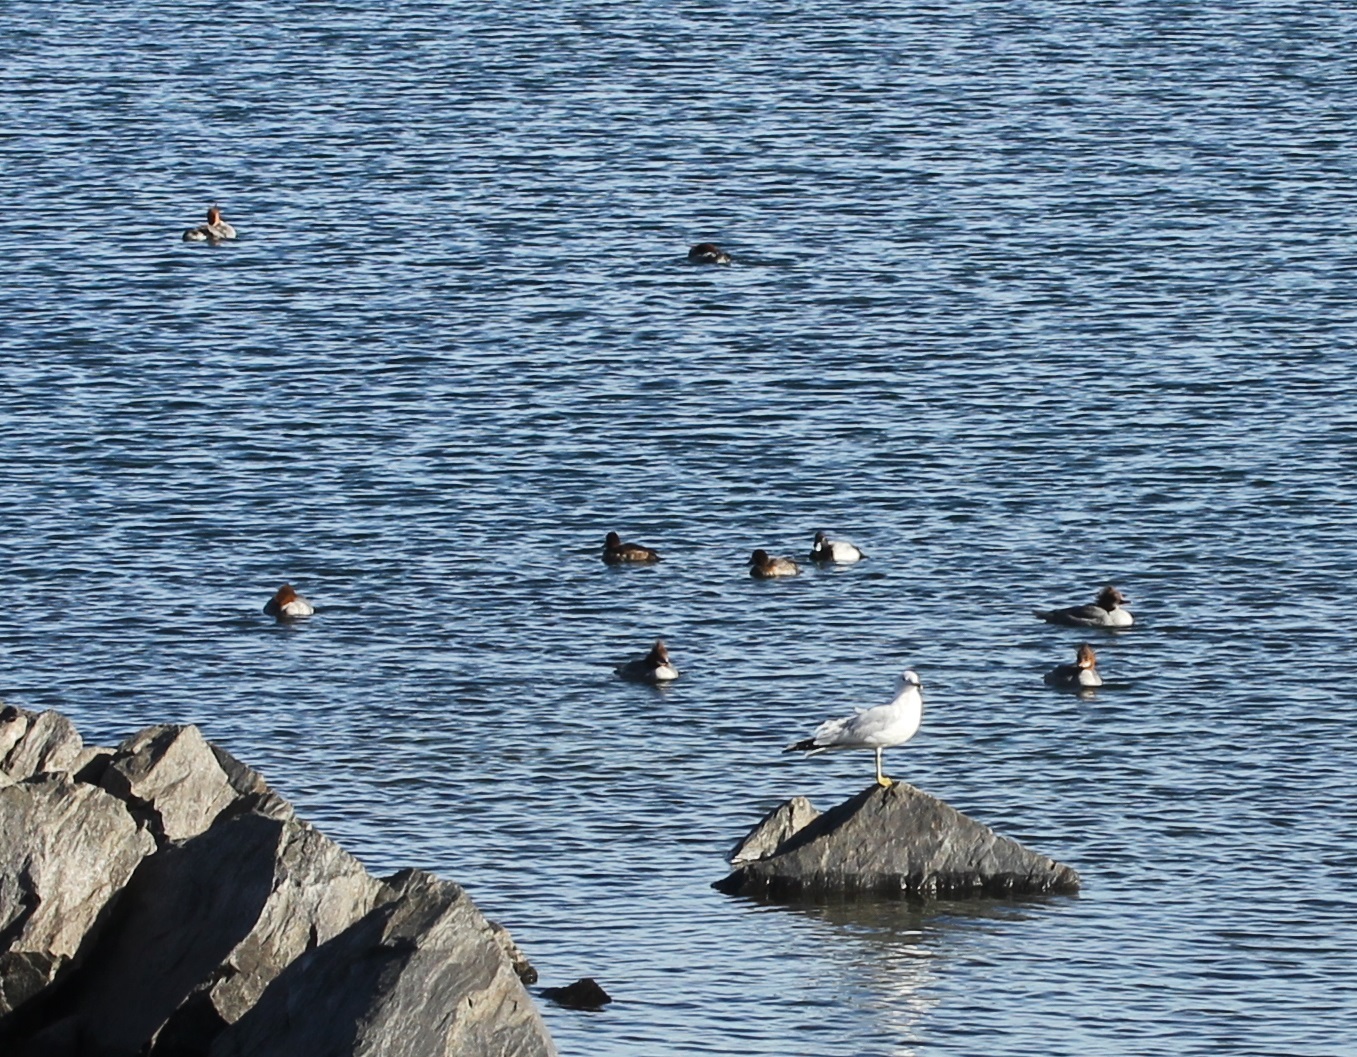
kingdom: Animalia
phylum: Chordata
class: Aves
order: Anseriformes
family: Anatidae
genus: Mergus
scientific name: Mergus merganser
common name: Common merganser
